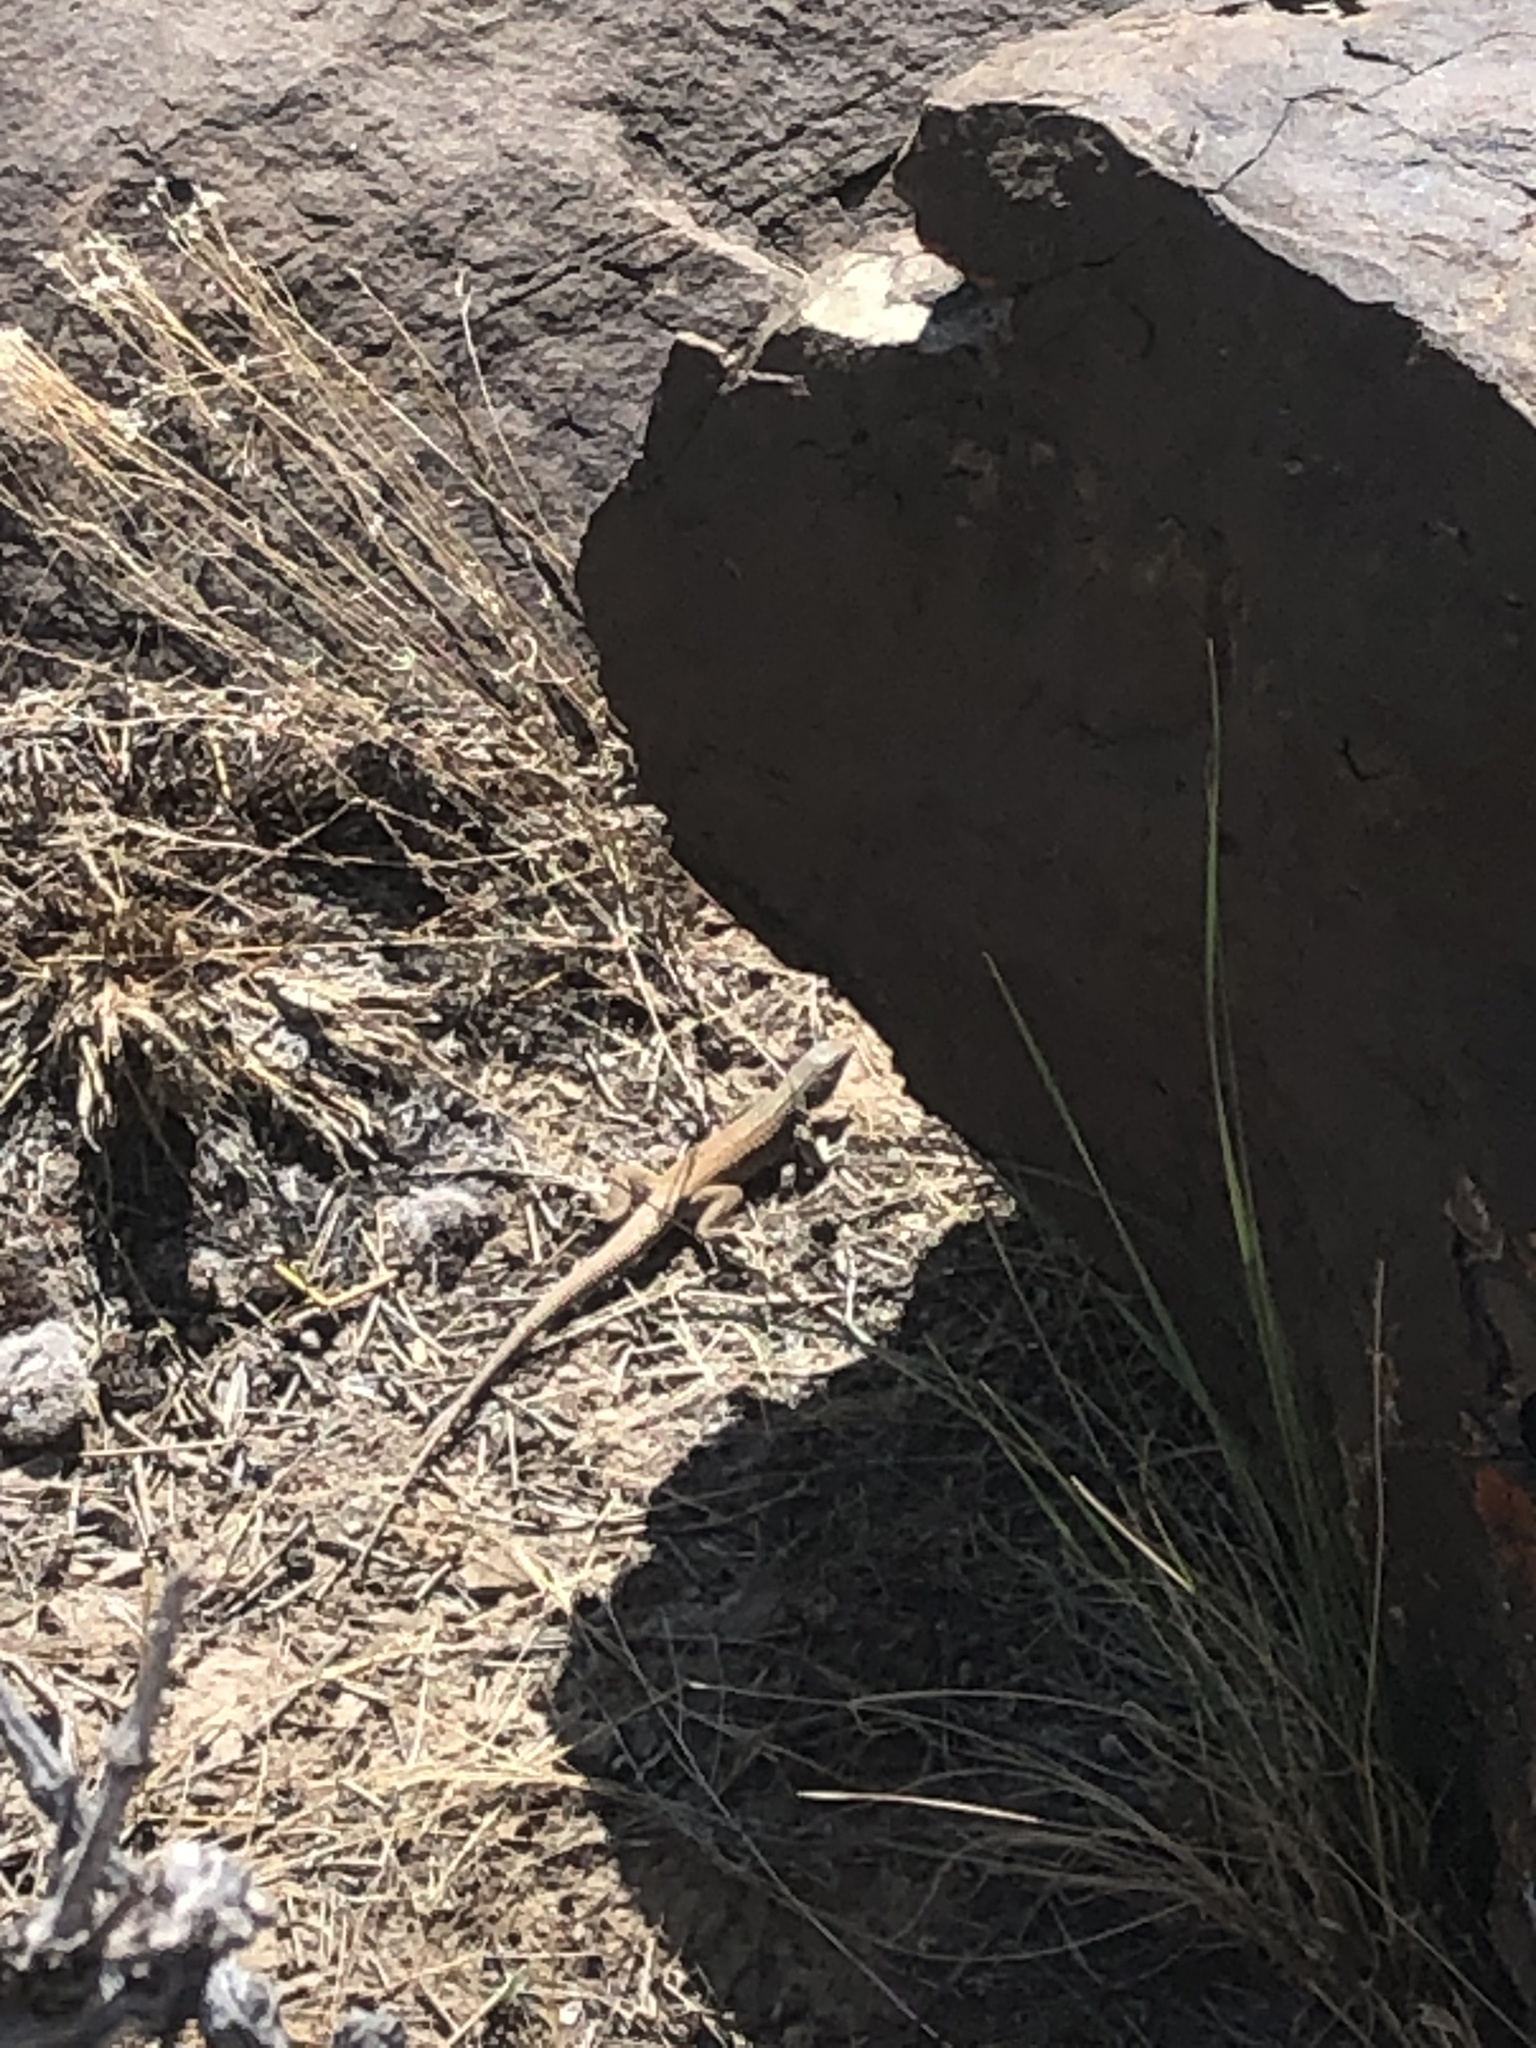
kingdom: Animalia
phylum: Chordata
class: Squamata
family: Teiidae
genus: Aspidoscelis
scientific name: Aspidoscelis tigris
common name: Tiger whiptail
